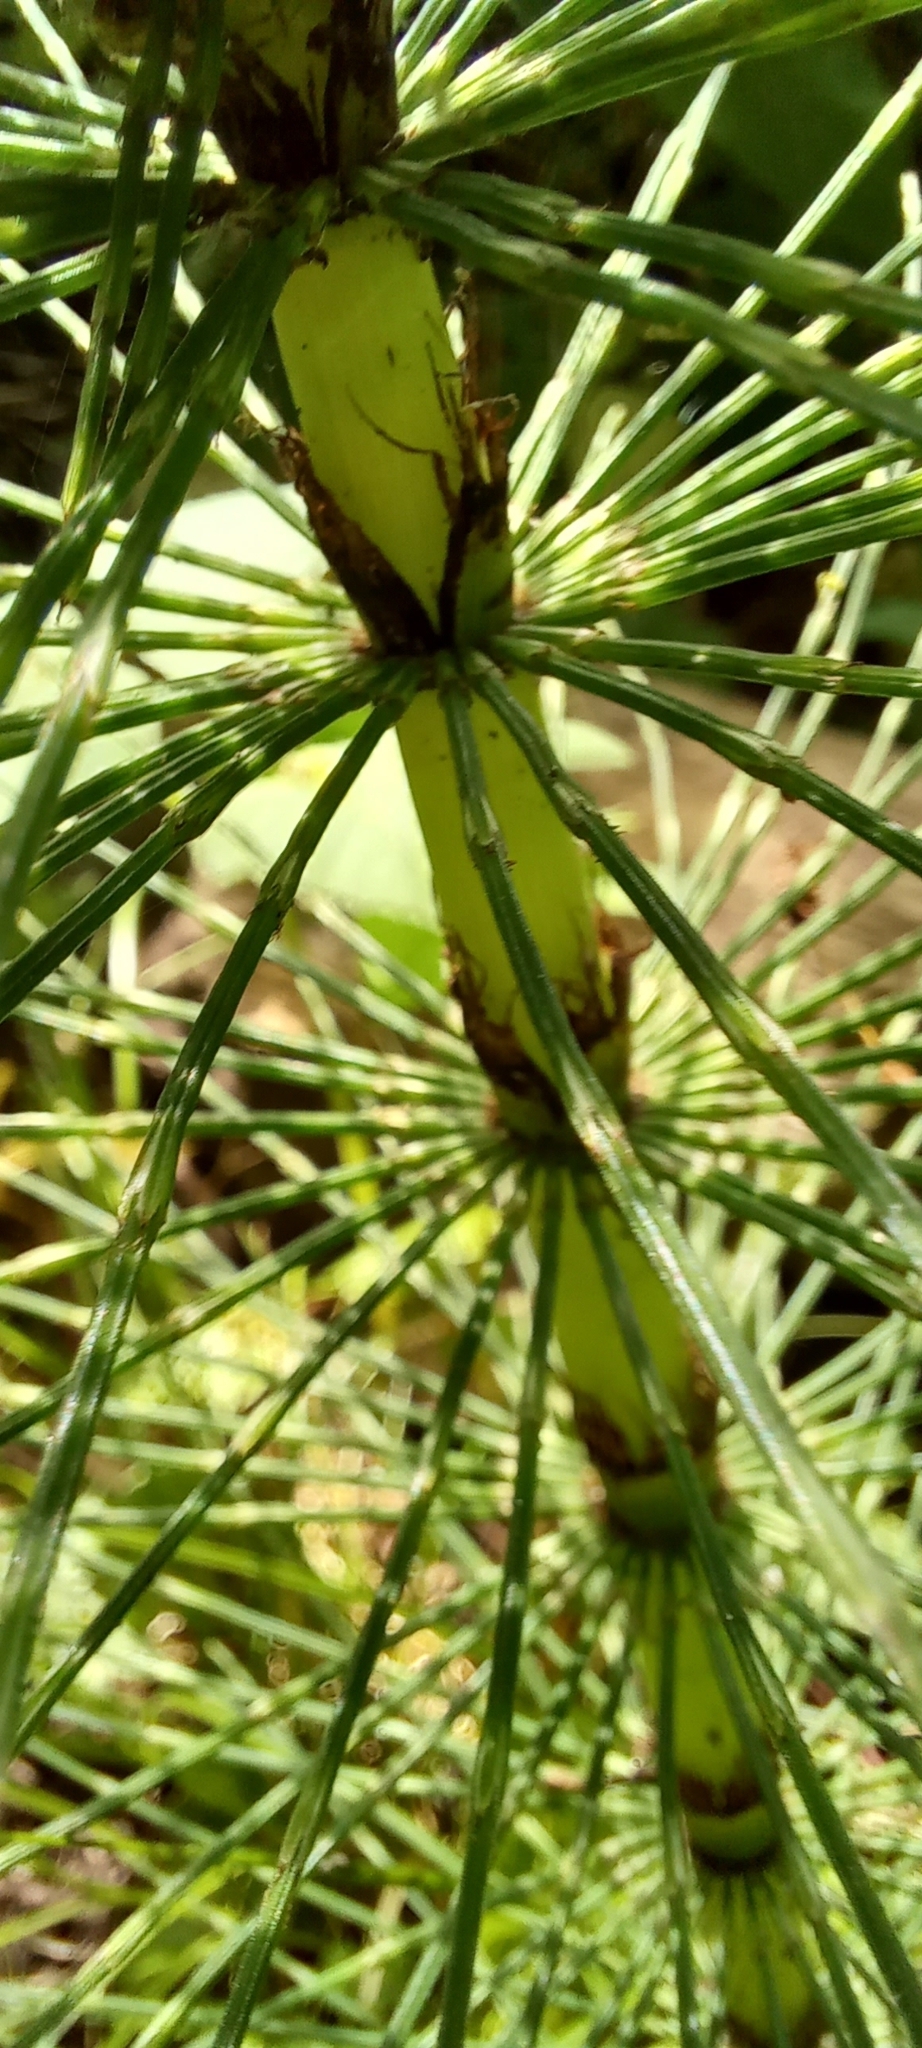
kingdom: Plantae
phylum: Tracheophyta
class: Polypodiopsida
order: Equisetales
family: Equisetaceae
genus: Equisetum
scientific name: Equisetum telmateia
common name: Great horsetail
